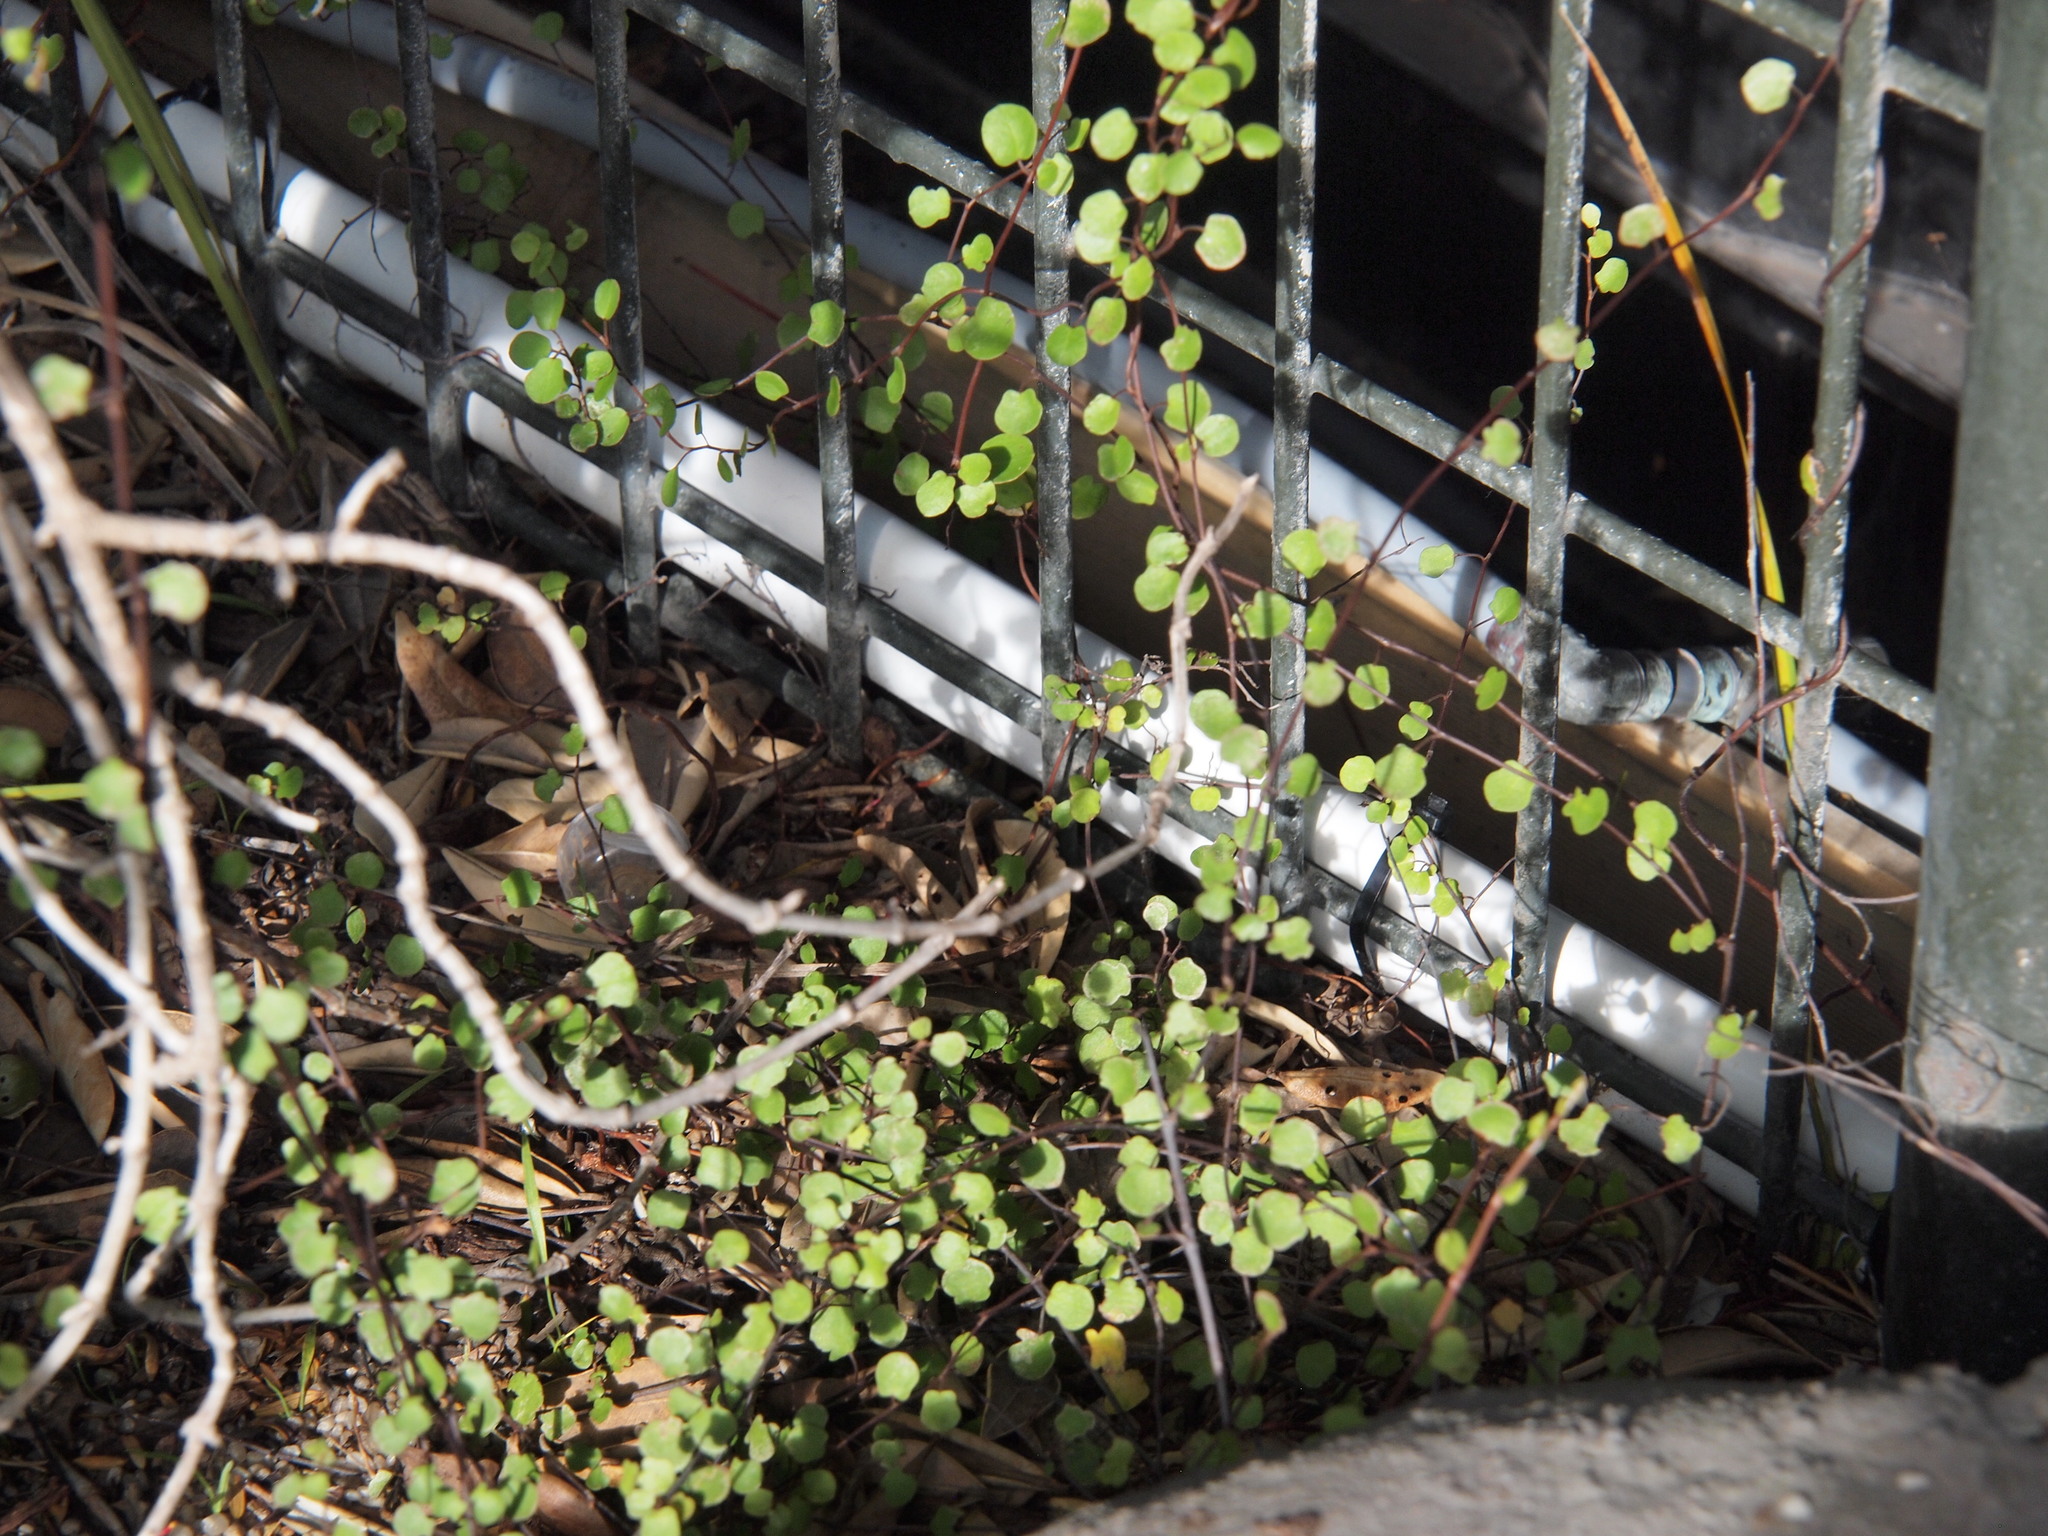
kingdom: Plantae
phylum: Tracheophyta
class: Magnoliopsida
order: Caryophyllales
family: Polygonaceae
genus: Muehlenbeckia
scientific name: Muehlenbeckia complexa
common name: Wireplant
